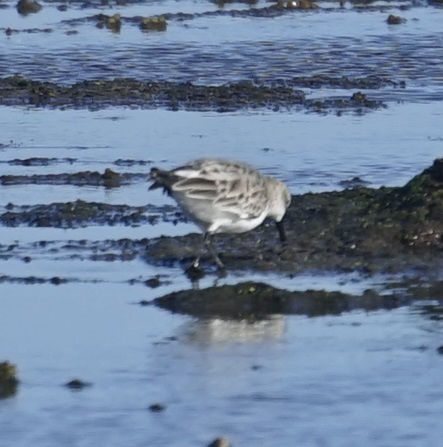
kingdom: Animalia
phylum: Chordata
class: Aves
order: Charadriiformes
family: Scolopacidae
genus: Calidris
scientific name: Calidris ruficollis
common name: Red-necked stint
